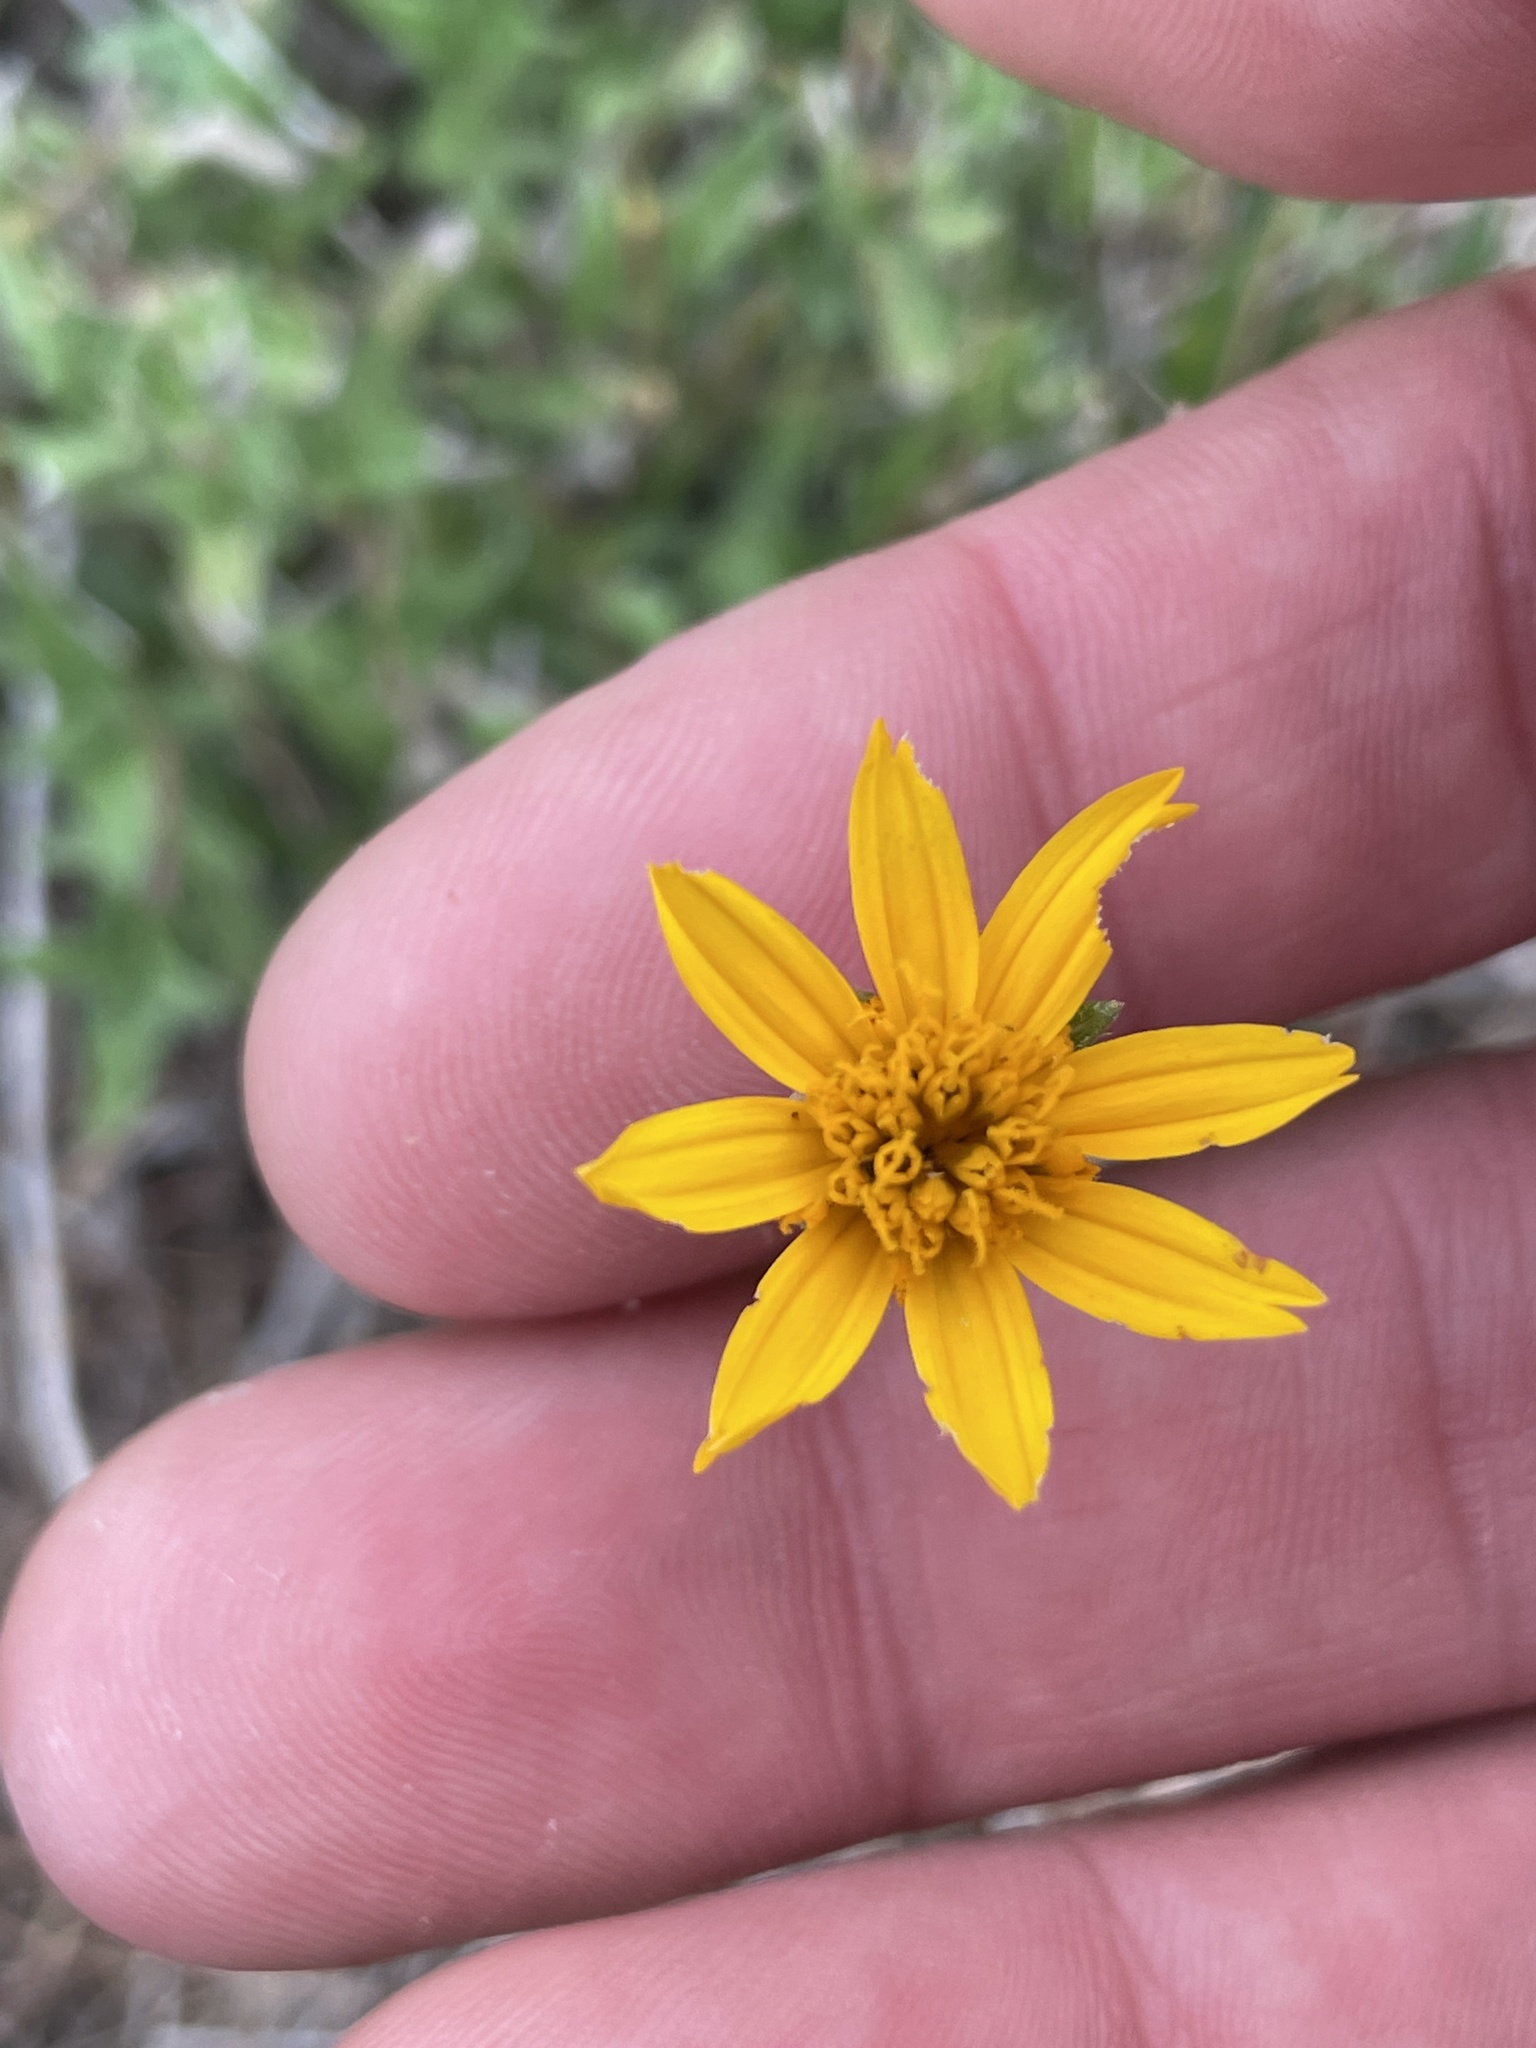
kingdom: Plantae
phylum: Tracheophyta
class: Magnoliopsida
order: Asterales
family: Asteraceae
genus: Wedelia
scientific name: Wedelia acapulcensis
